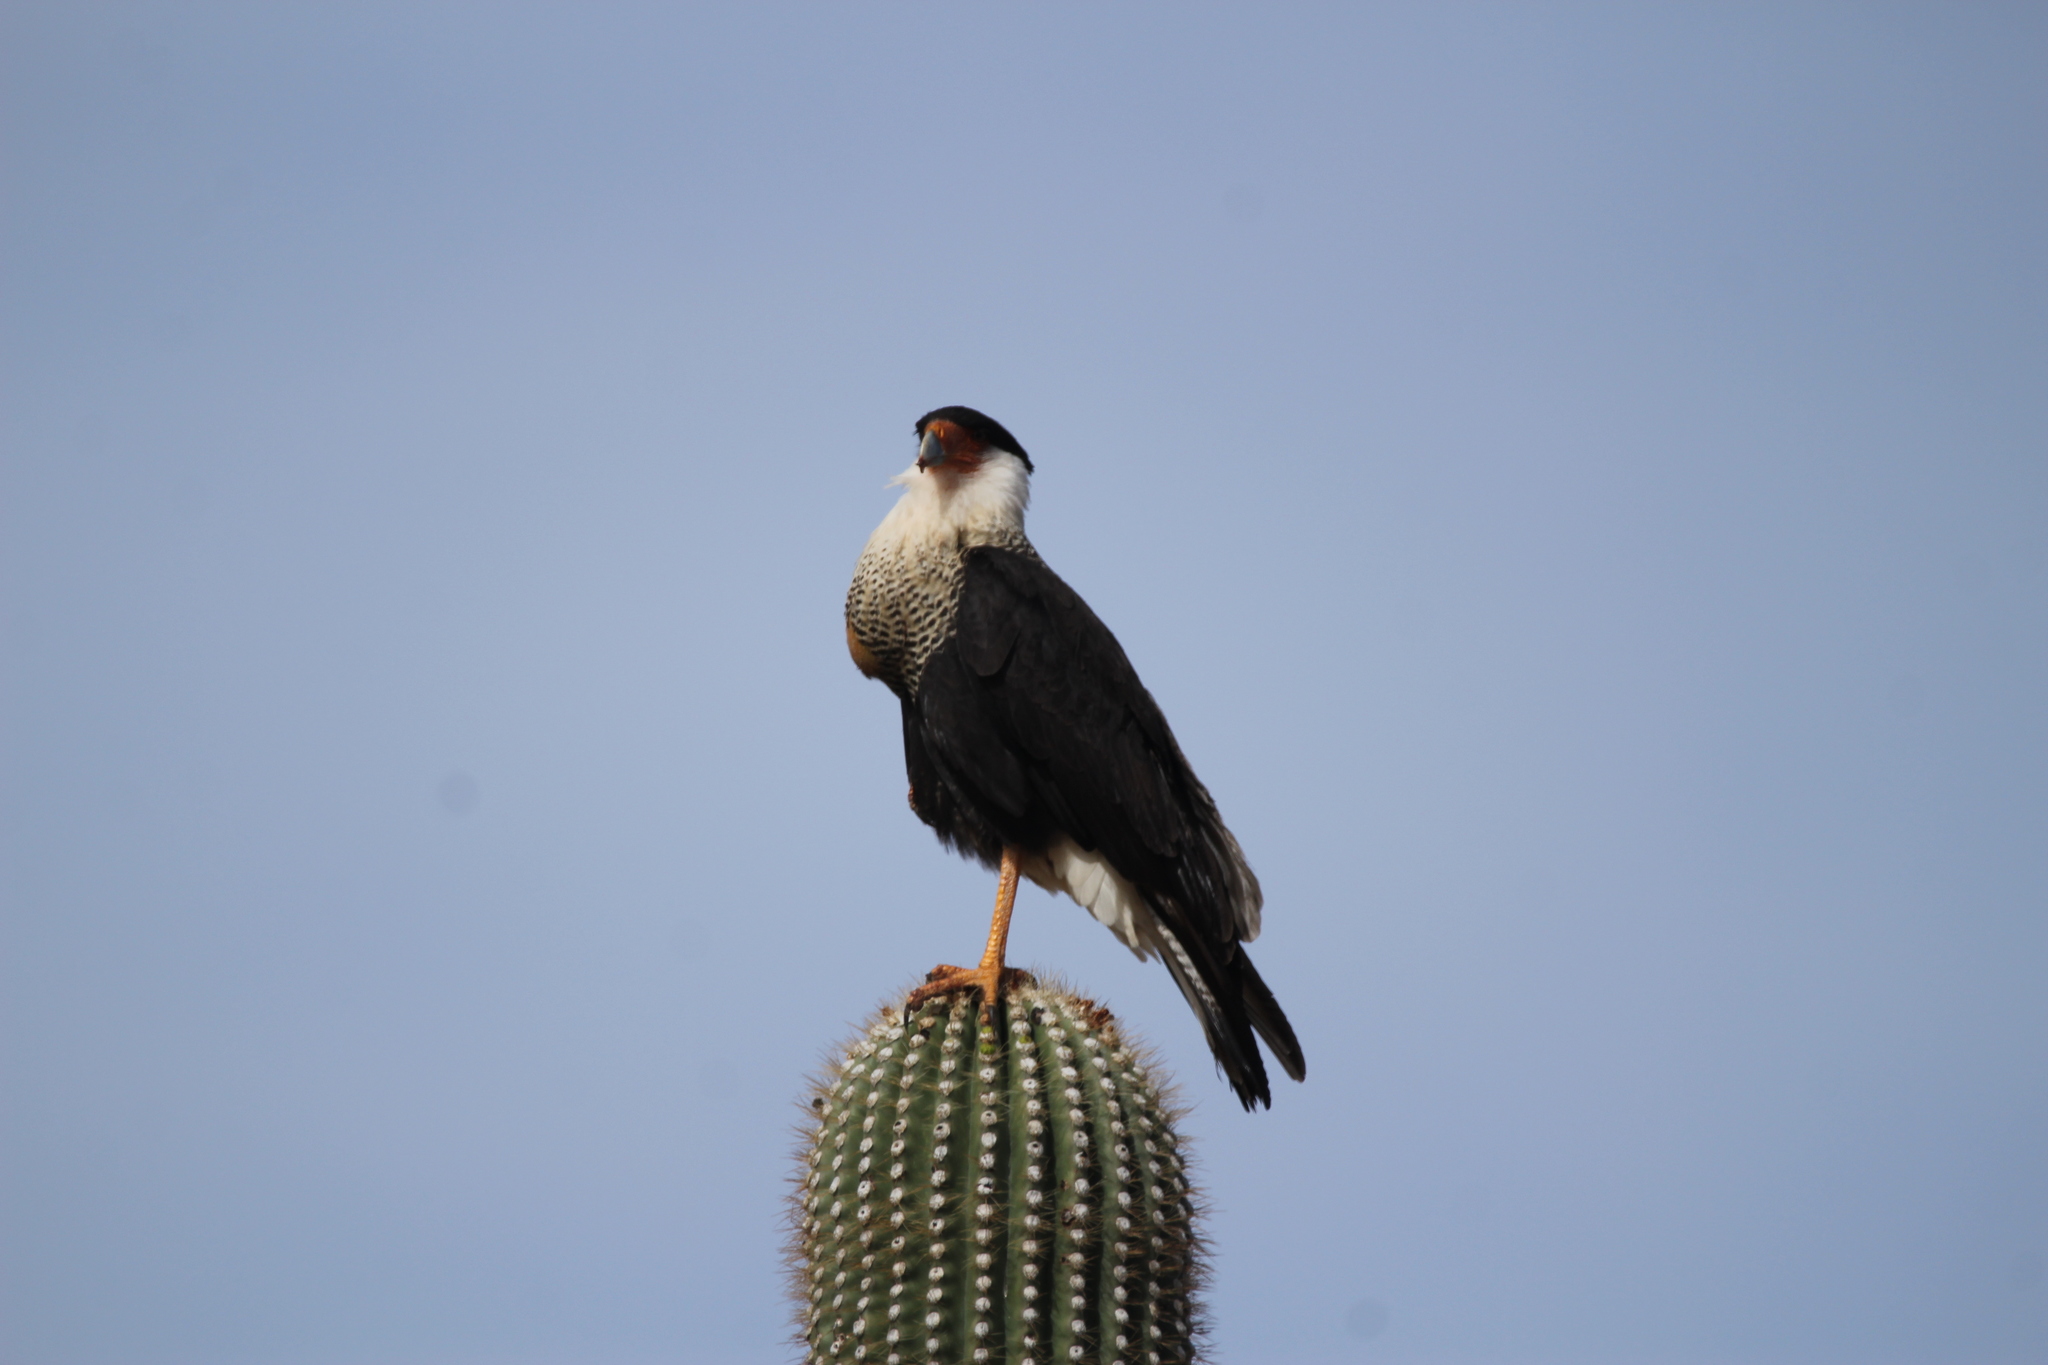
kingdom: Animalia
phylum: Chordata
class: Aves
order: Falconiformes
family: Falconidae
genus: Caracara
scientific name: Caracara plancus
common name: Southern caracara
